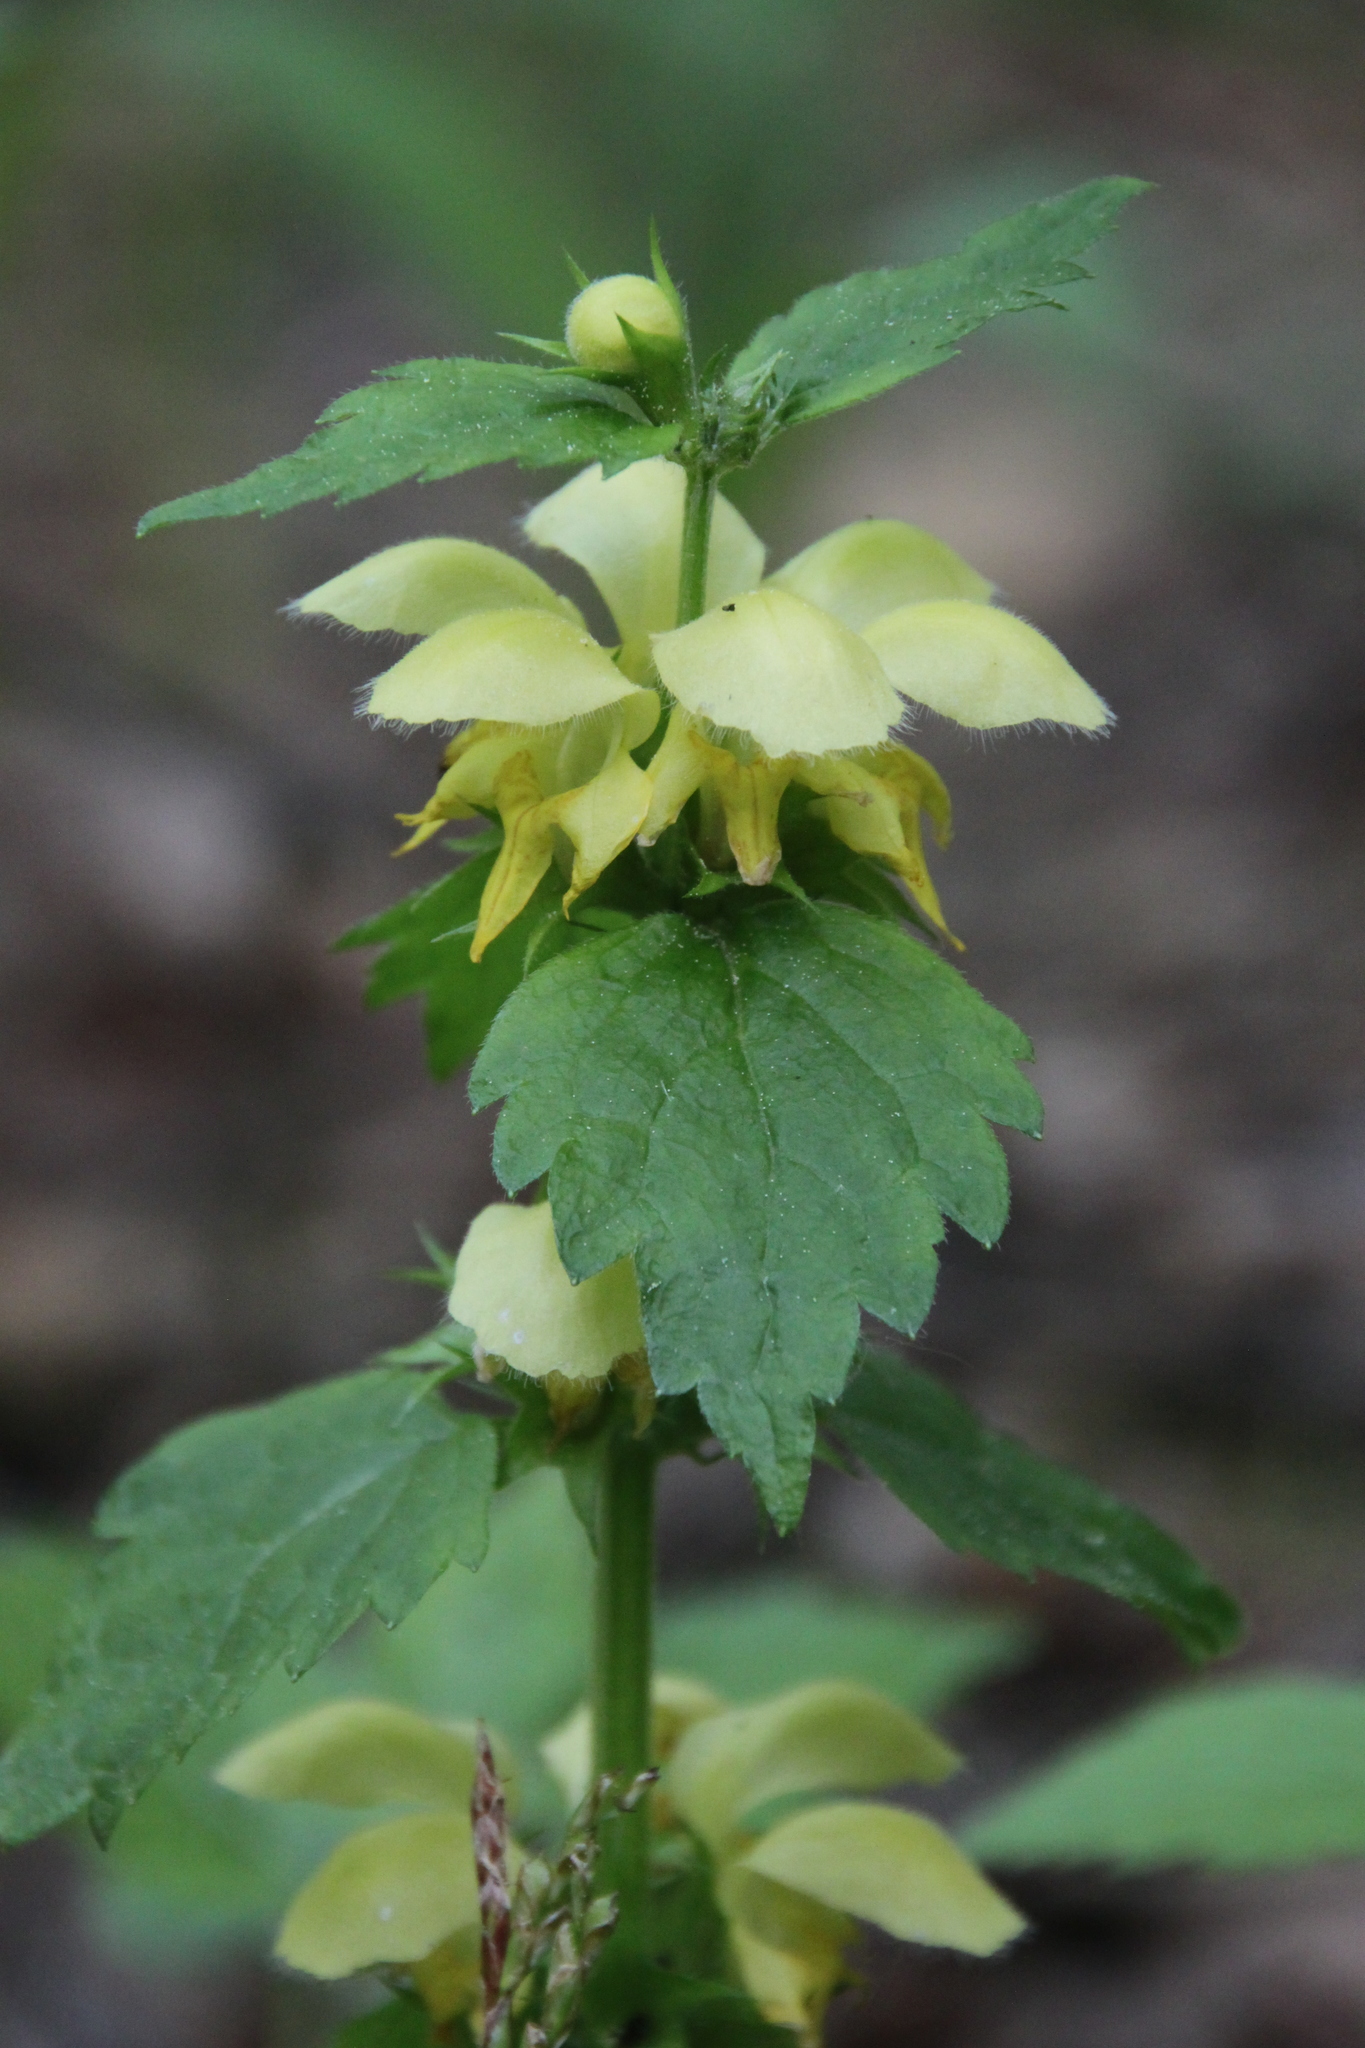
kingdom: Plantae
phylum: Tracheophyta
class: Magnoliopsida
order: Lamiales
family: Lamiaceae
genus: Lamium
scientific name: Lamium galeobdolon
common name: Yellow archangel
